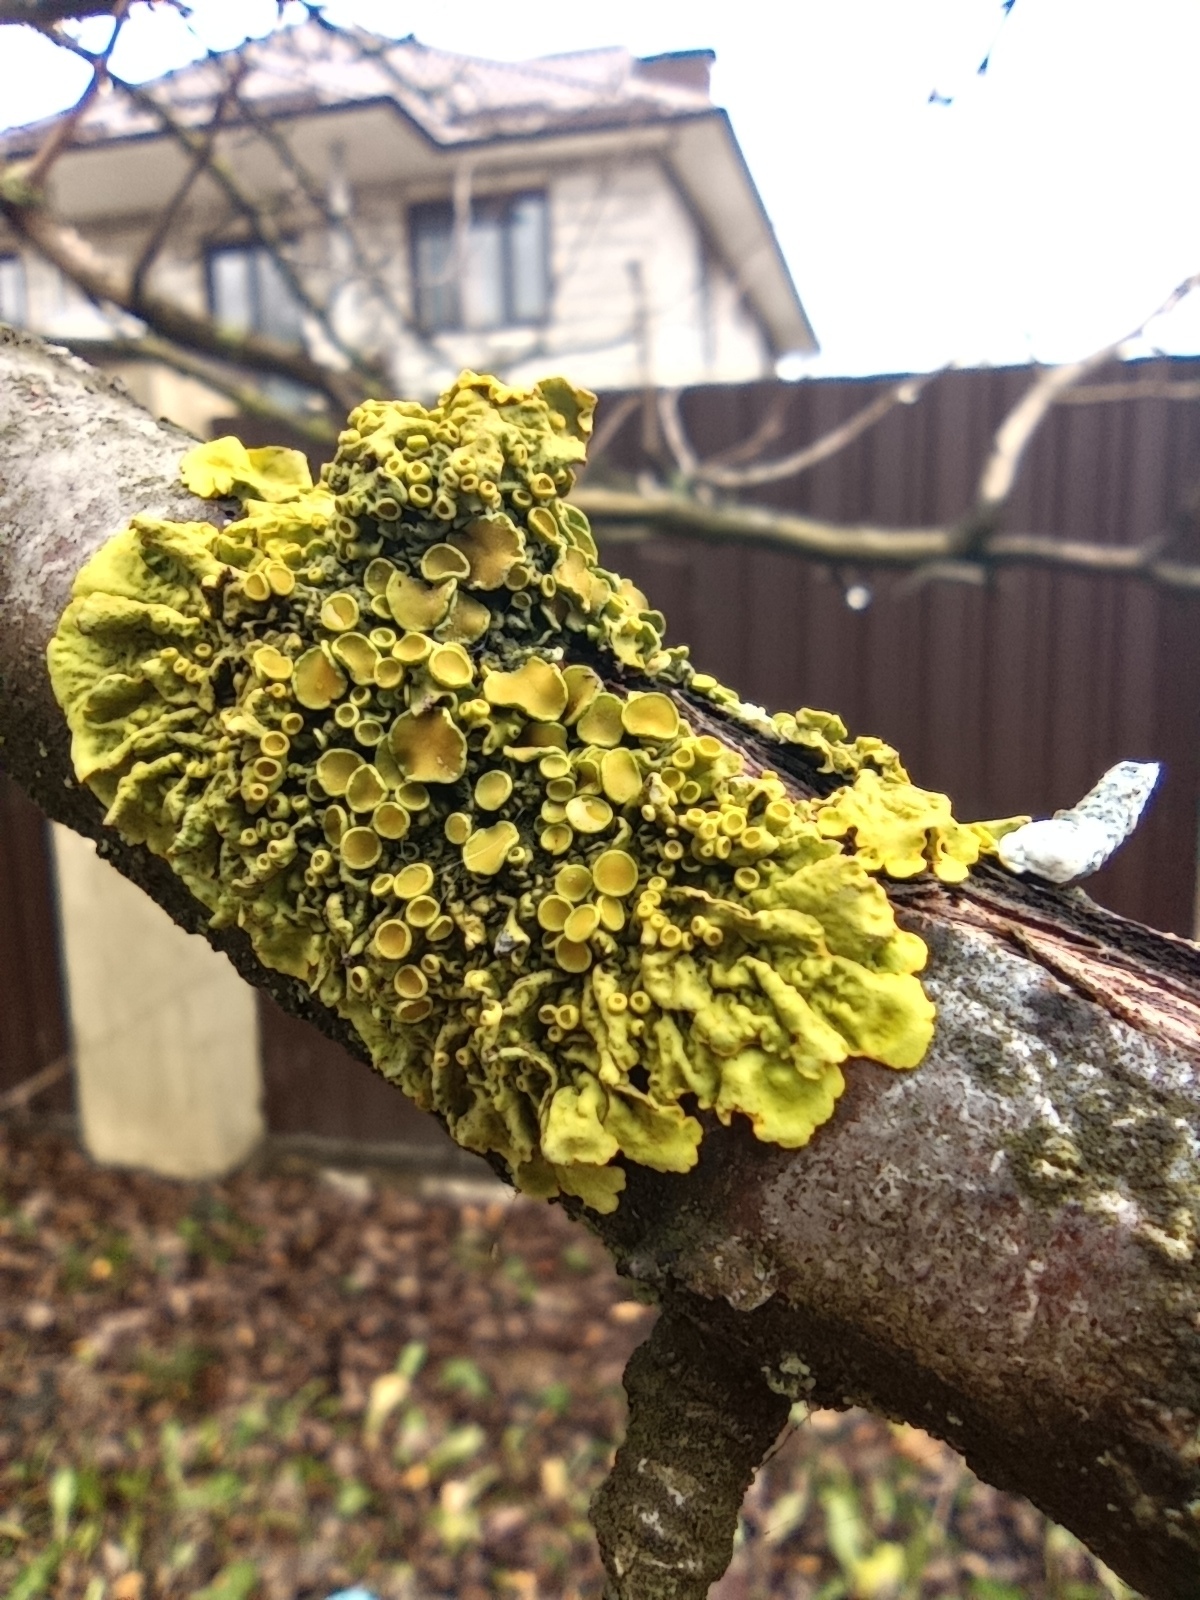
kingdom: Fungi
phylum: Ascomycota
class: Lecanoromycetes
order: Teloschistales
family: Teloschistaceae
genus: Xanthoria
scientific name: Xanthoria parietina
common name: Common orange lichen
